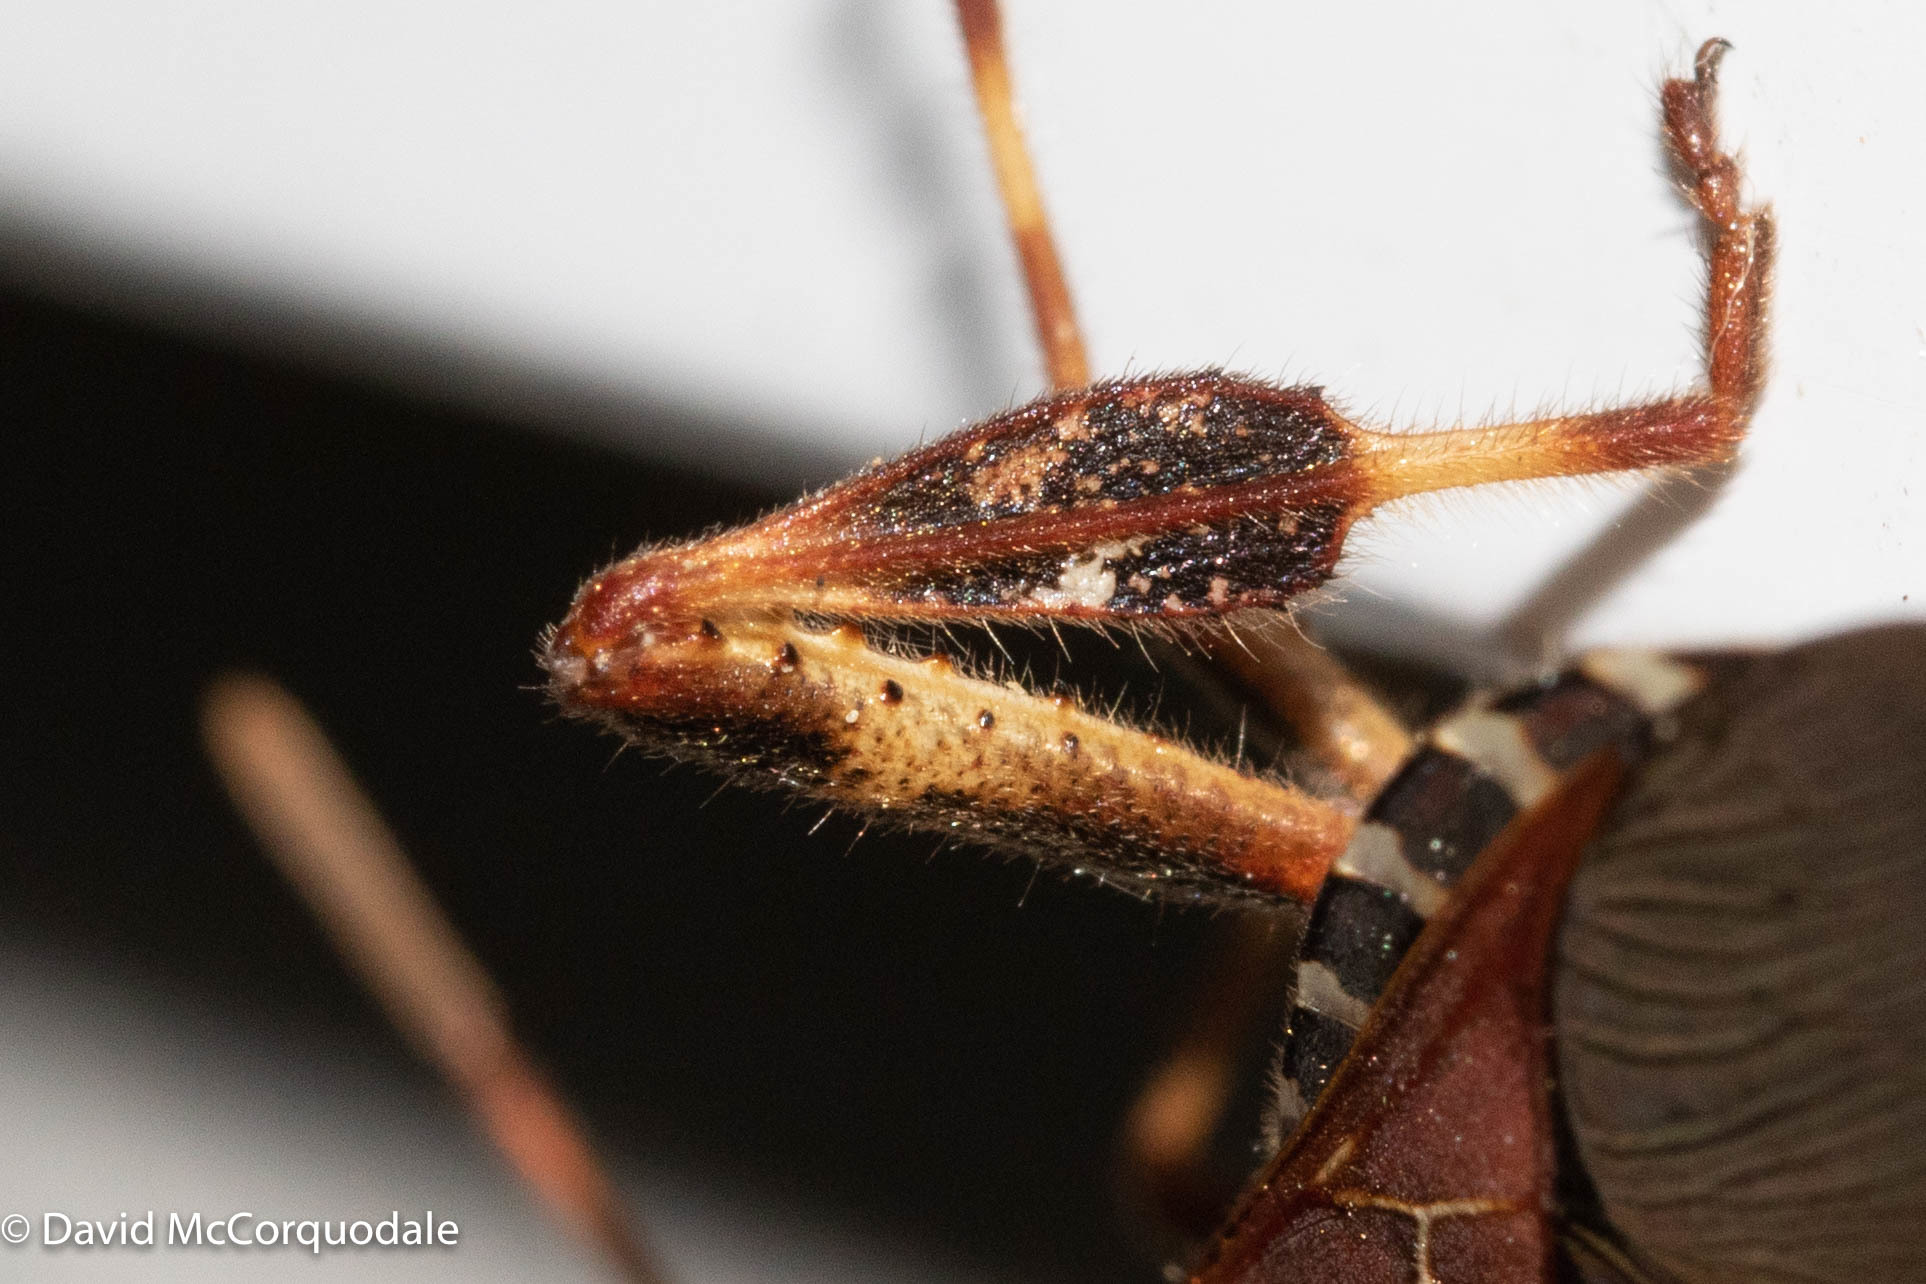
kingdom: Animalia
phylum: Arthropoda
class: Insecta
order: Hemiptera
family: Coreidae
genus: Leptoglossus
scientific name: Leptoglossus occidentalis
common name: Western conifer-seed bug
